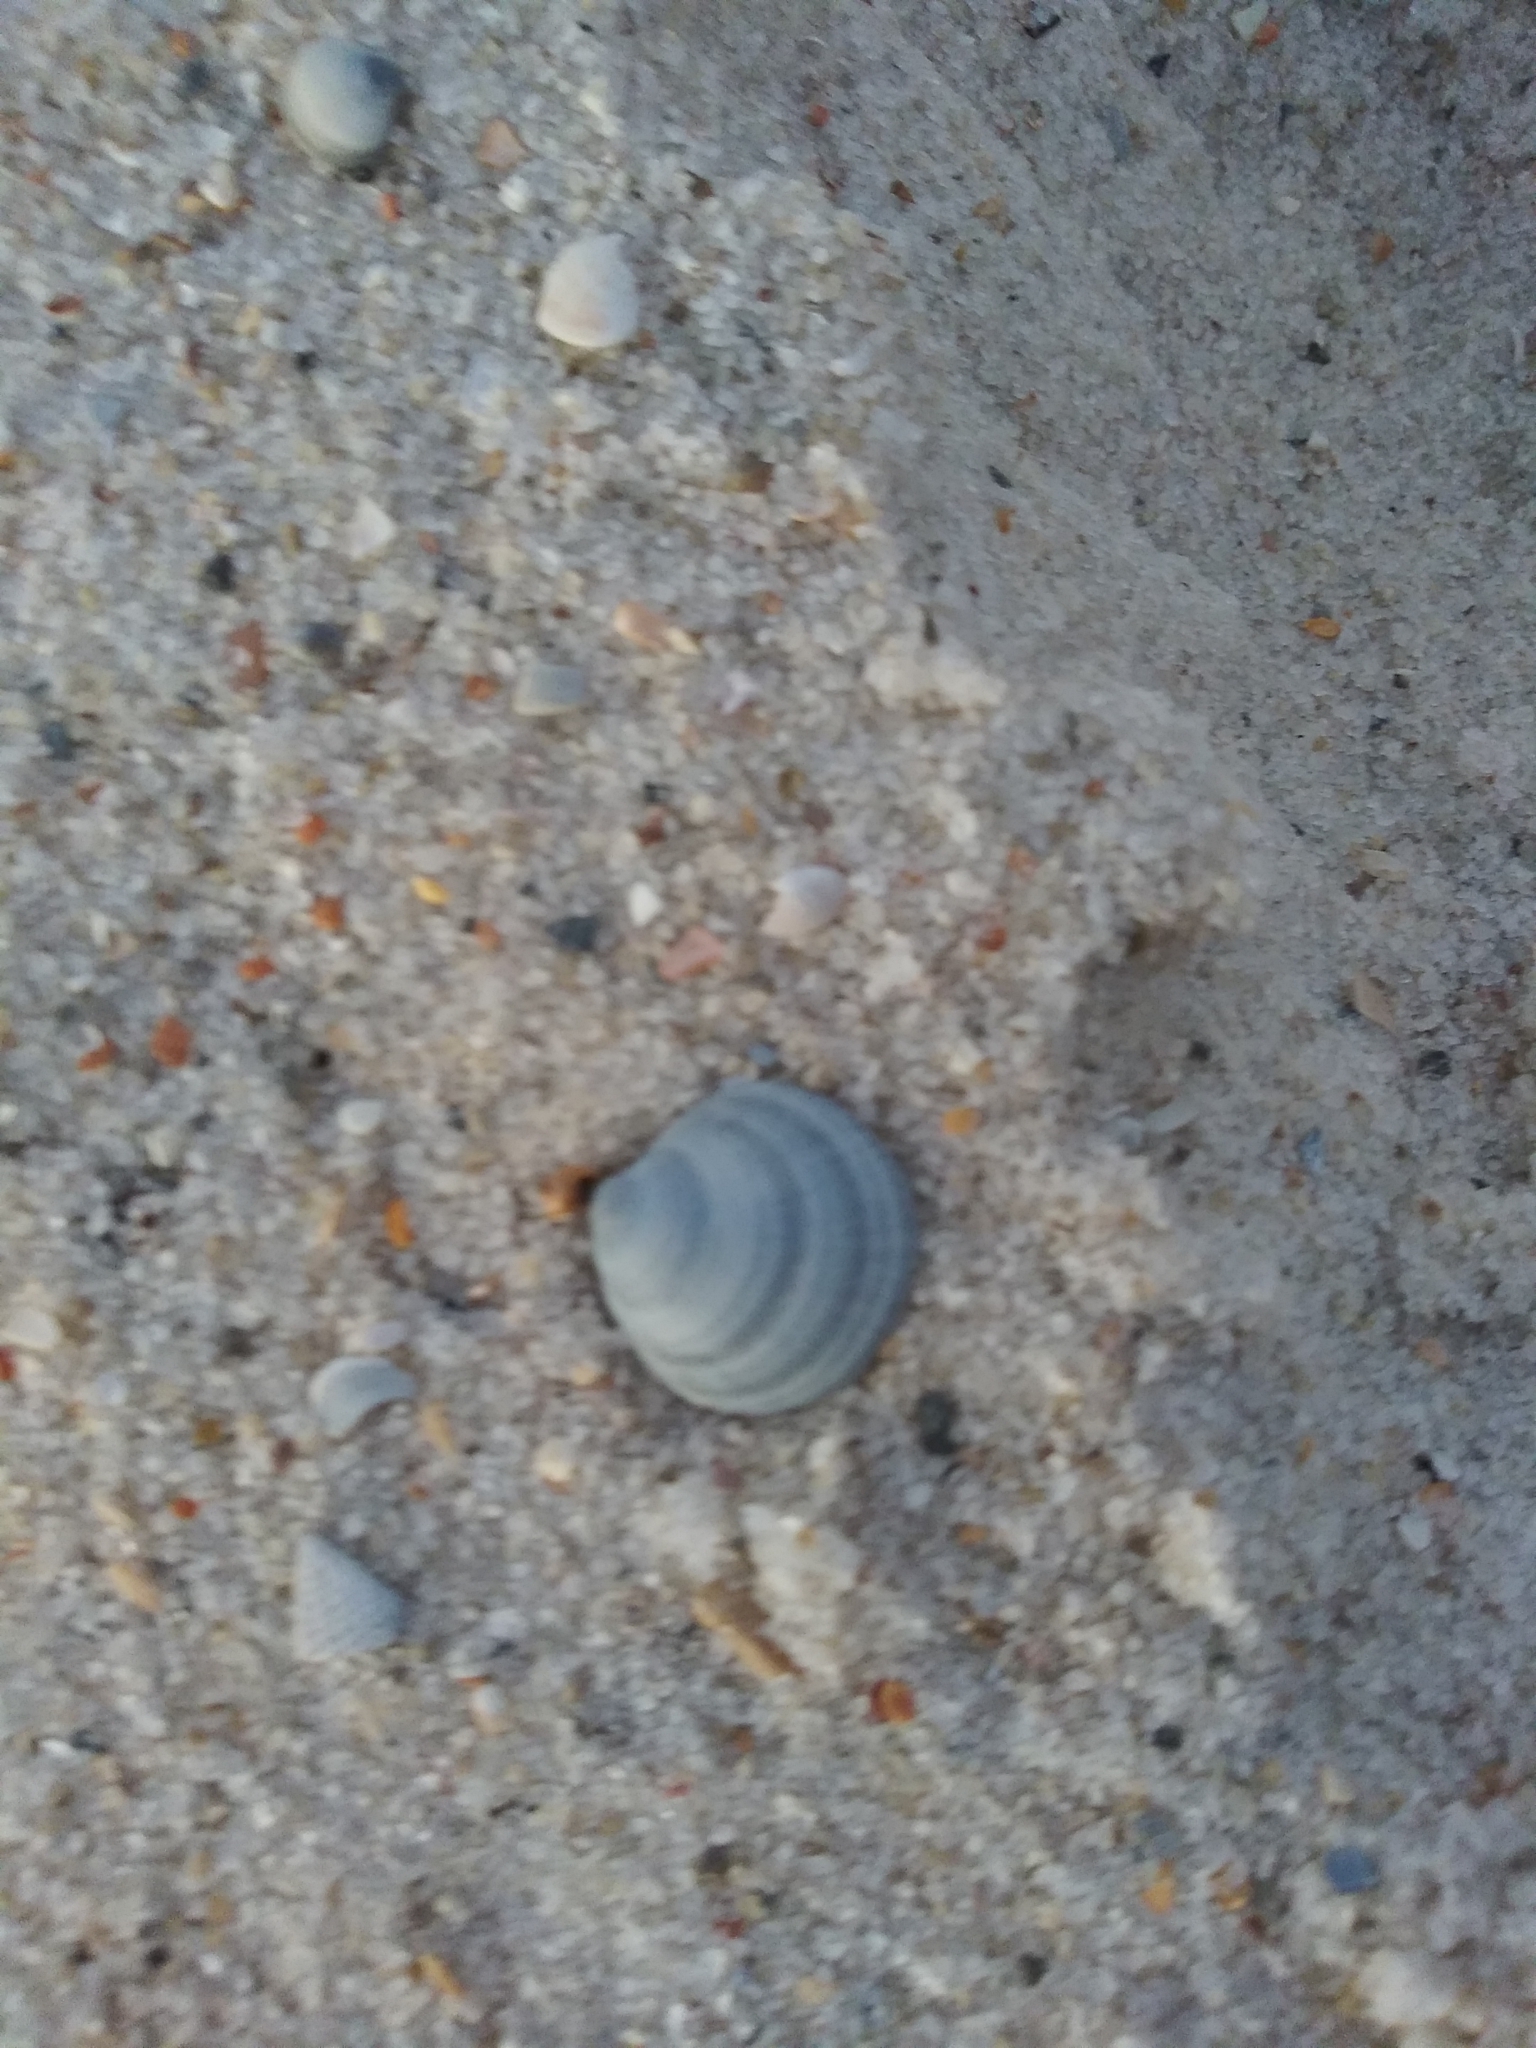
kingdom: Animalia
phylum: Mollusca
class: Bivalvia
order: Lucinida
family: Lucinidae
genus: Callucina
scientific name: Callucina keenae
